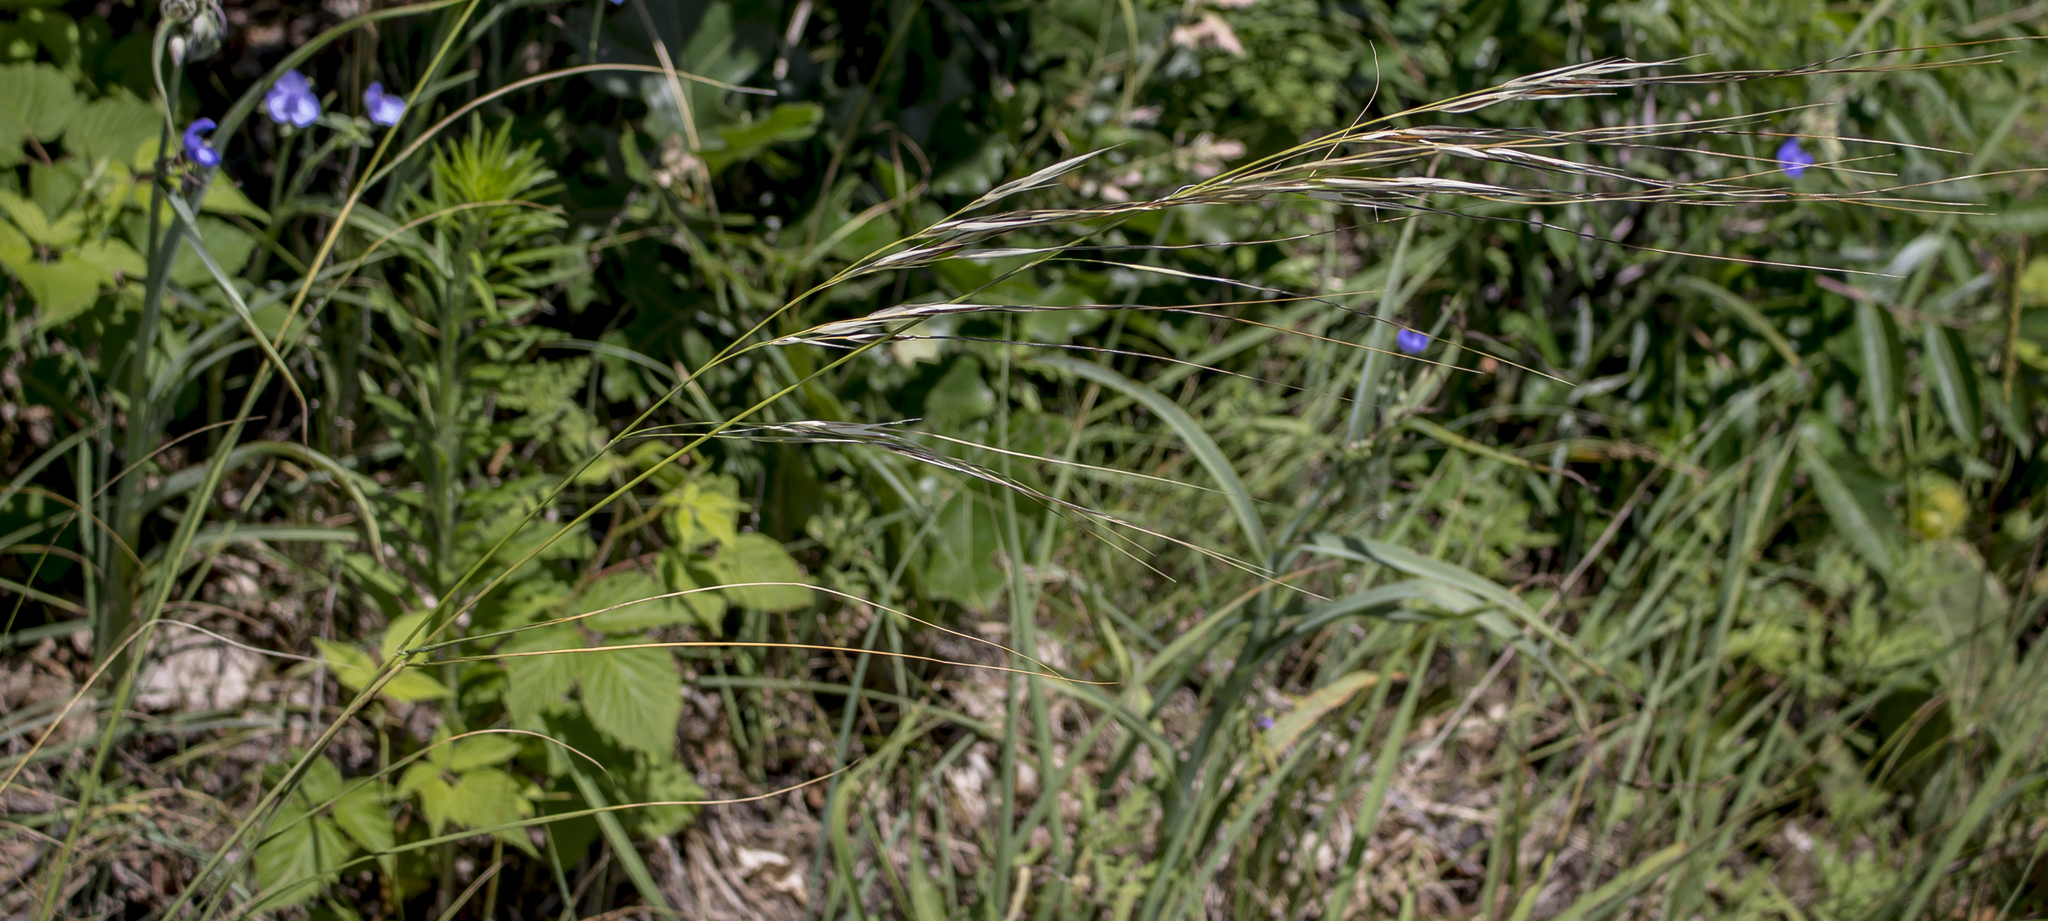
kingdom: Plantae
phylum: Tracheophyta
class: Liliopsida
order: Poales
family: Poaceae
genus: Hesperostipa
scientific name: Hesperostipa spartea
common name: Porcupine grass
